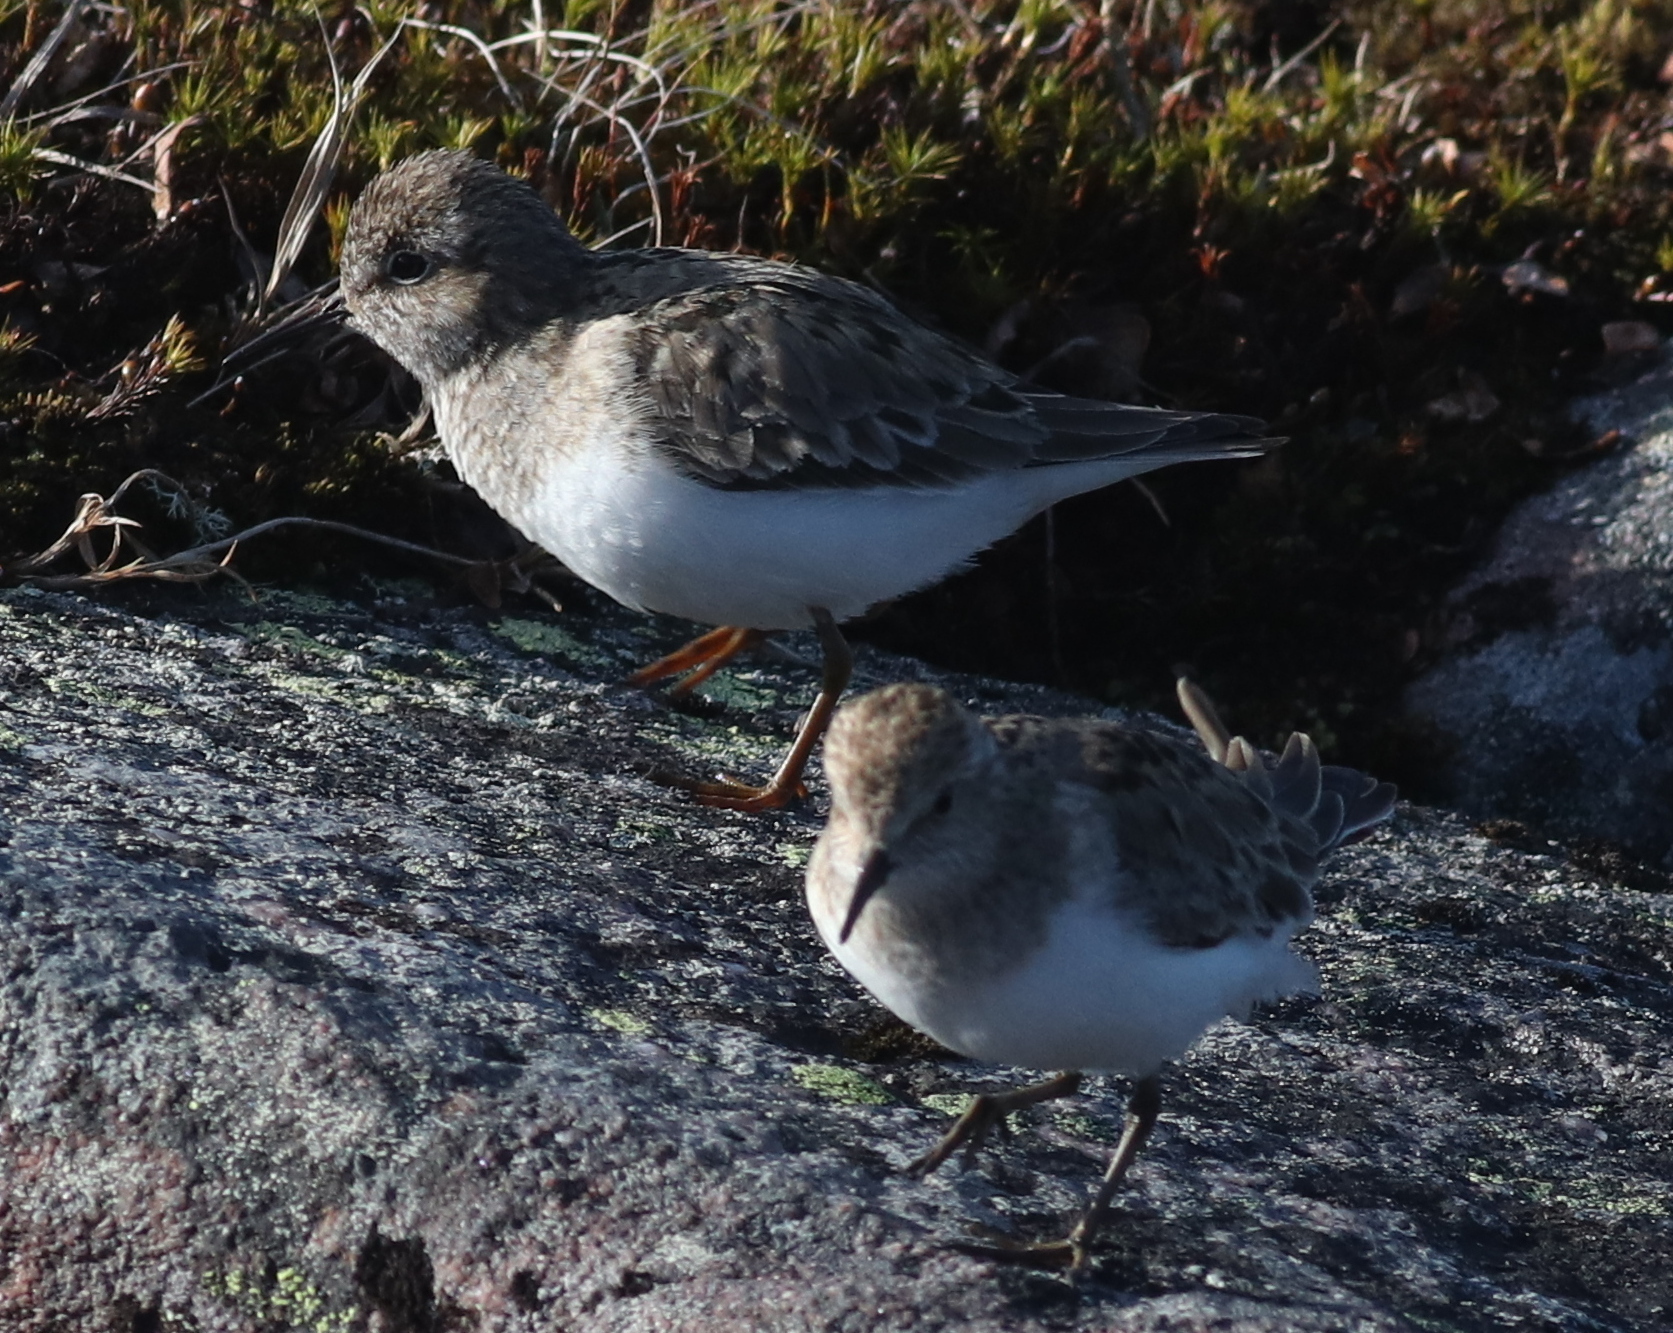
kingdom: Animalia
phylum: Chordata
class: Aves
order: Charadriiformes
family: Scolopacidae
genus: Calidris
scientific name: Calidris temminckii
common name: Temminck's stint
